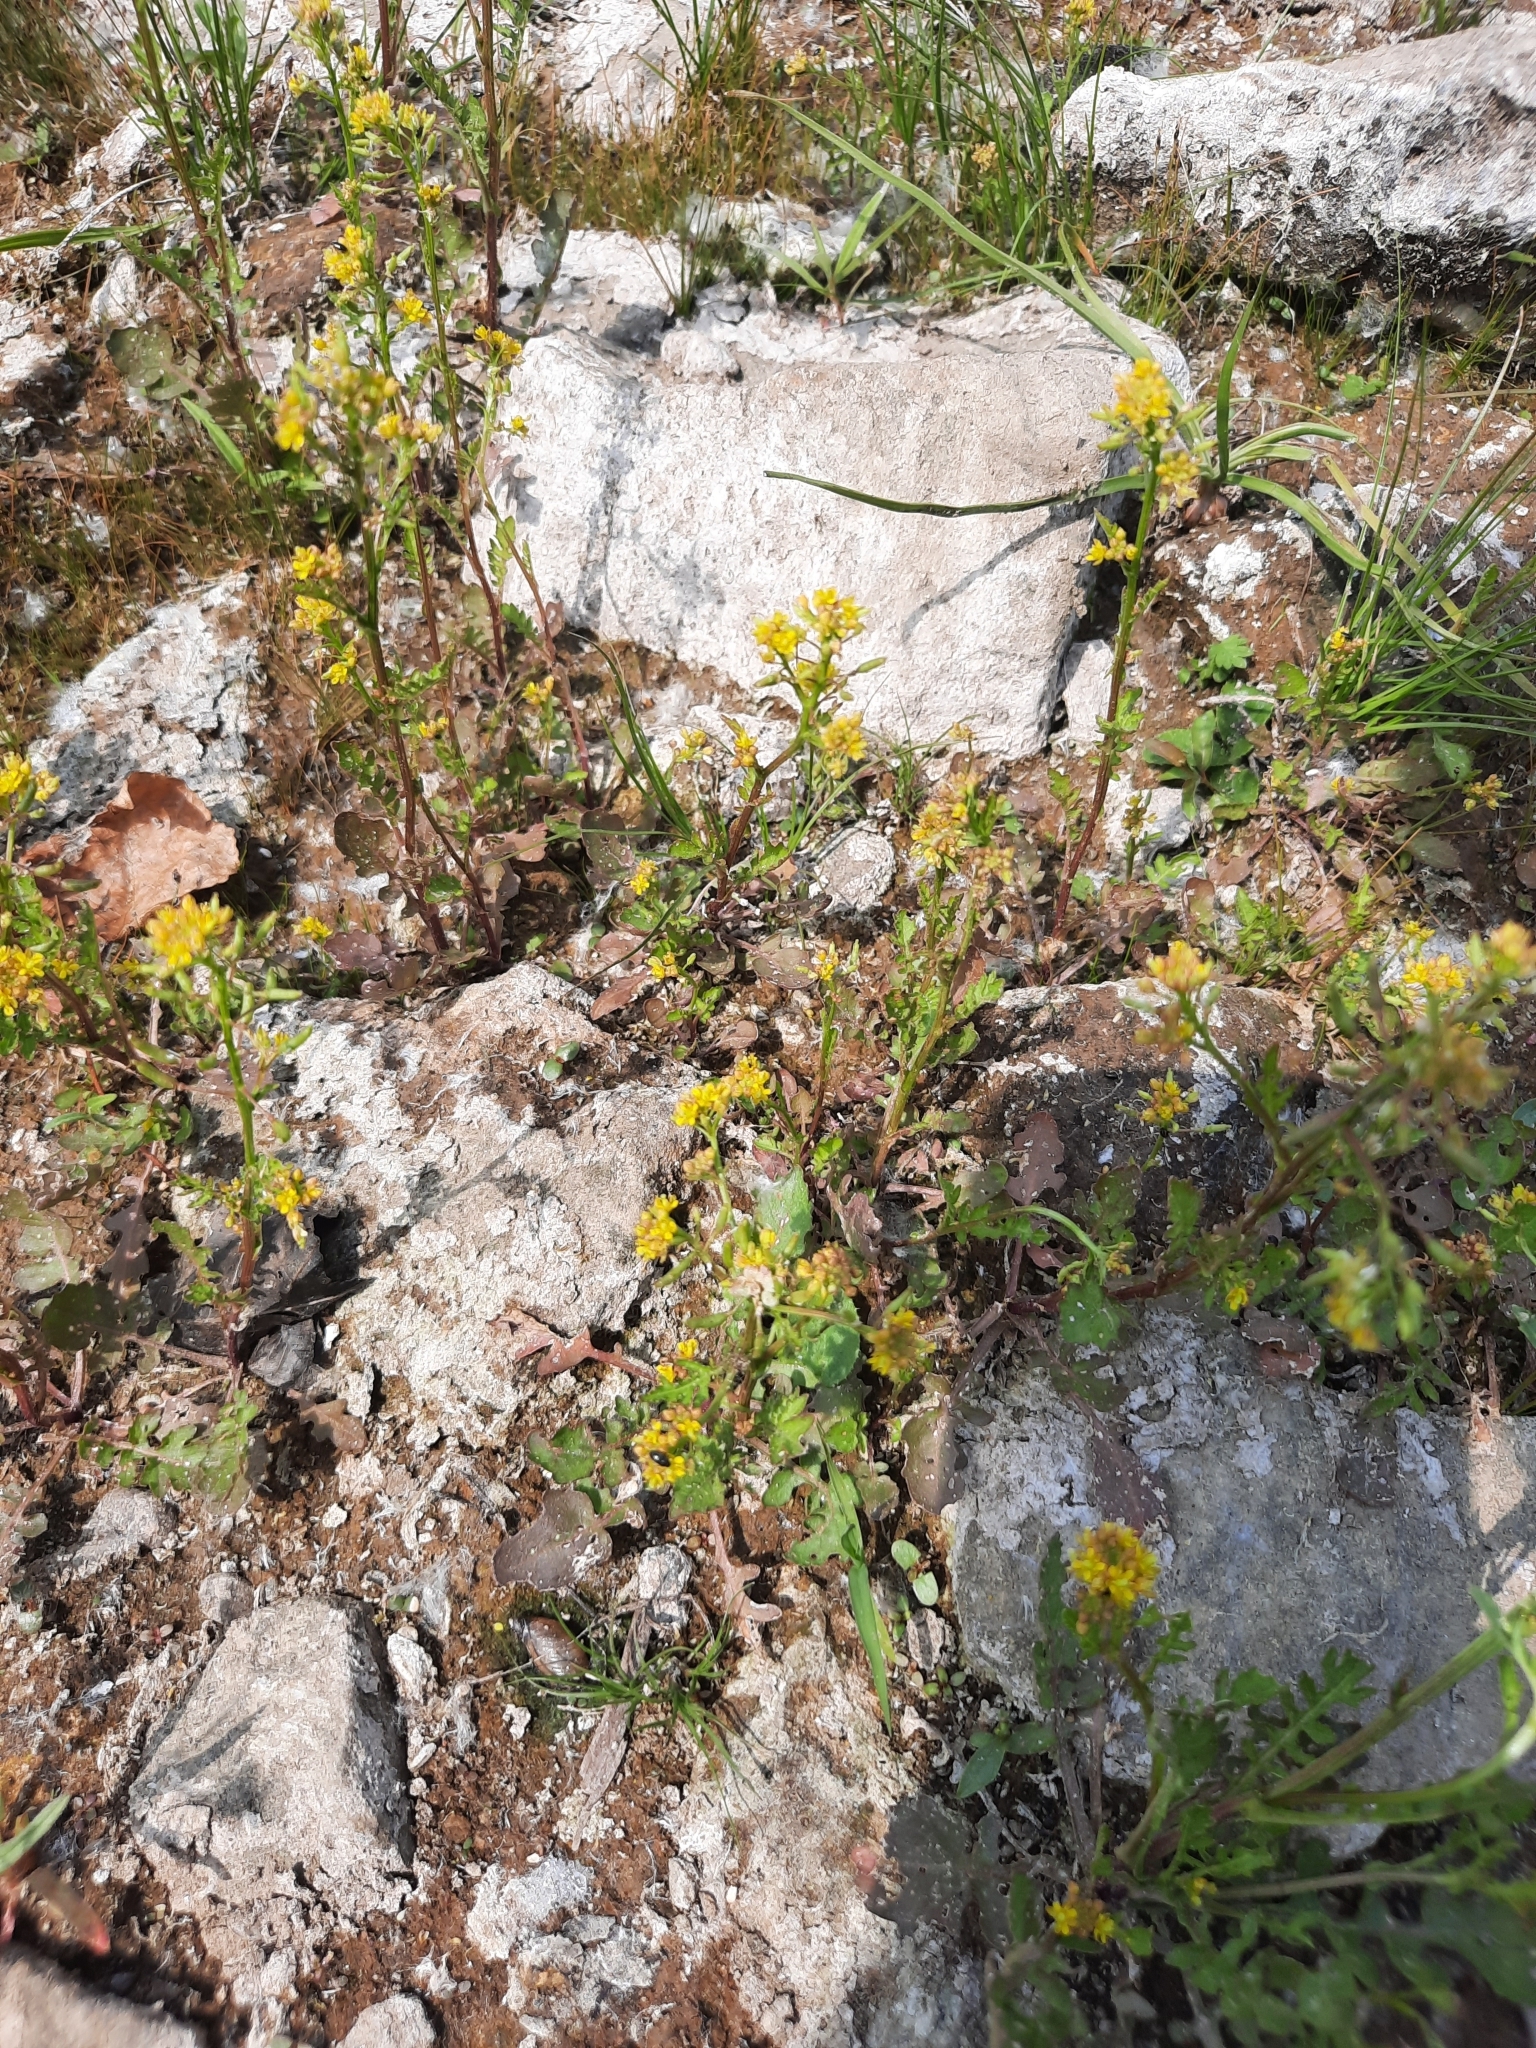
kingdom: Plantae
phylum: Tracheophyta
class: Magnoliopsida
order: Brassicales
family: Brassicaceae
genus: Rorippa
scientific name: Rorippa palustris
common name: Marsh yellow-cress
